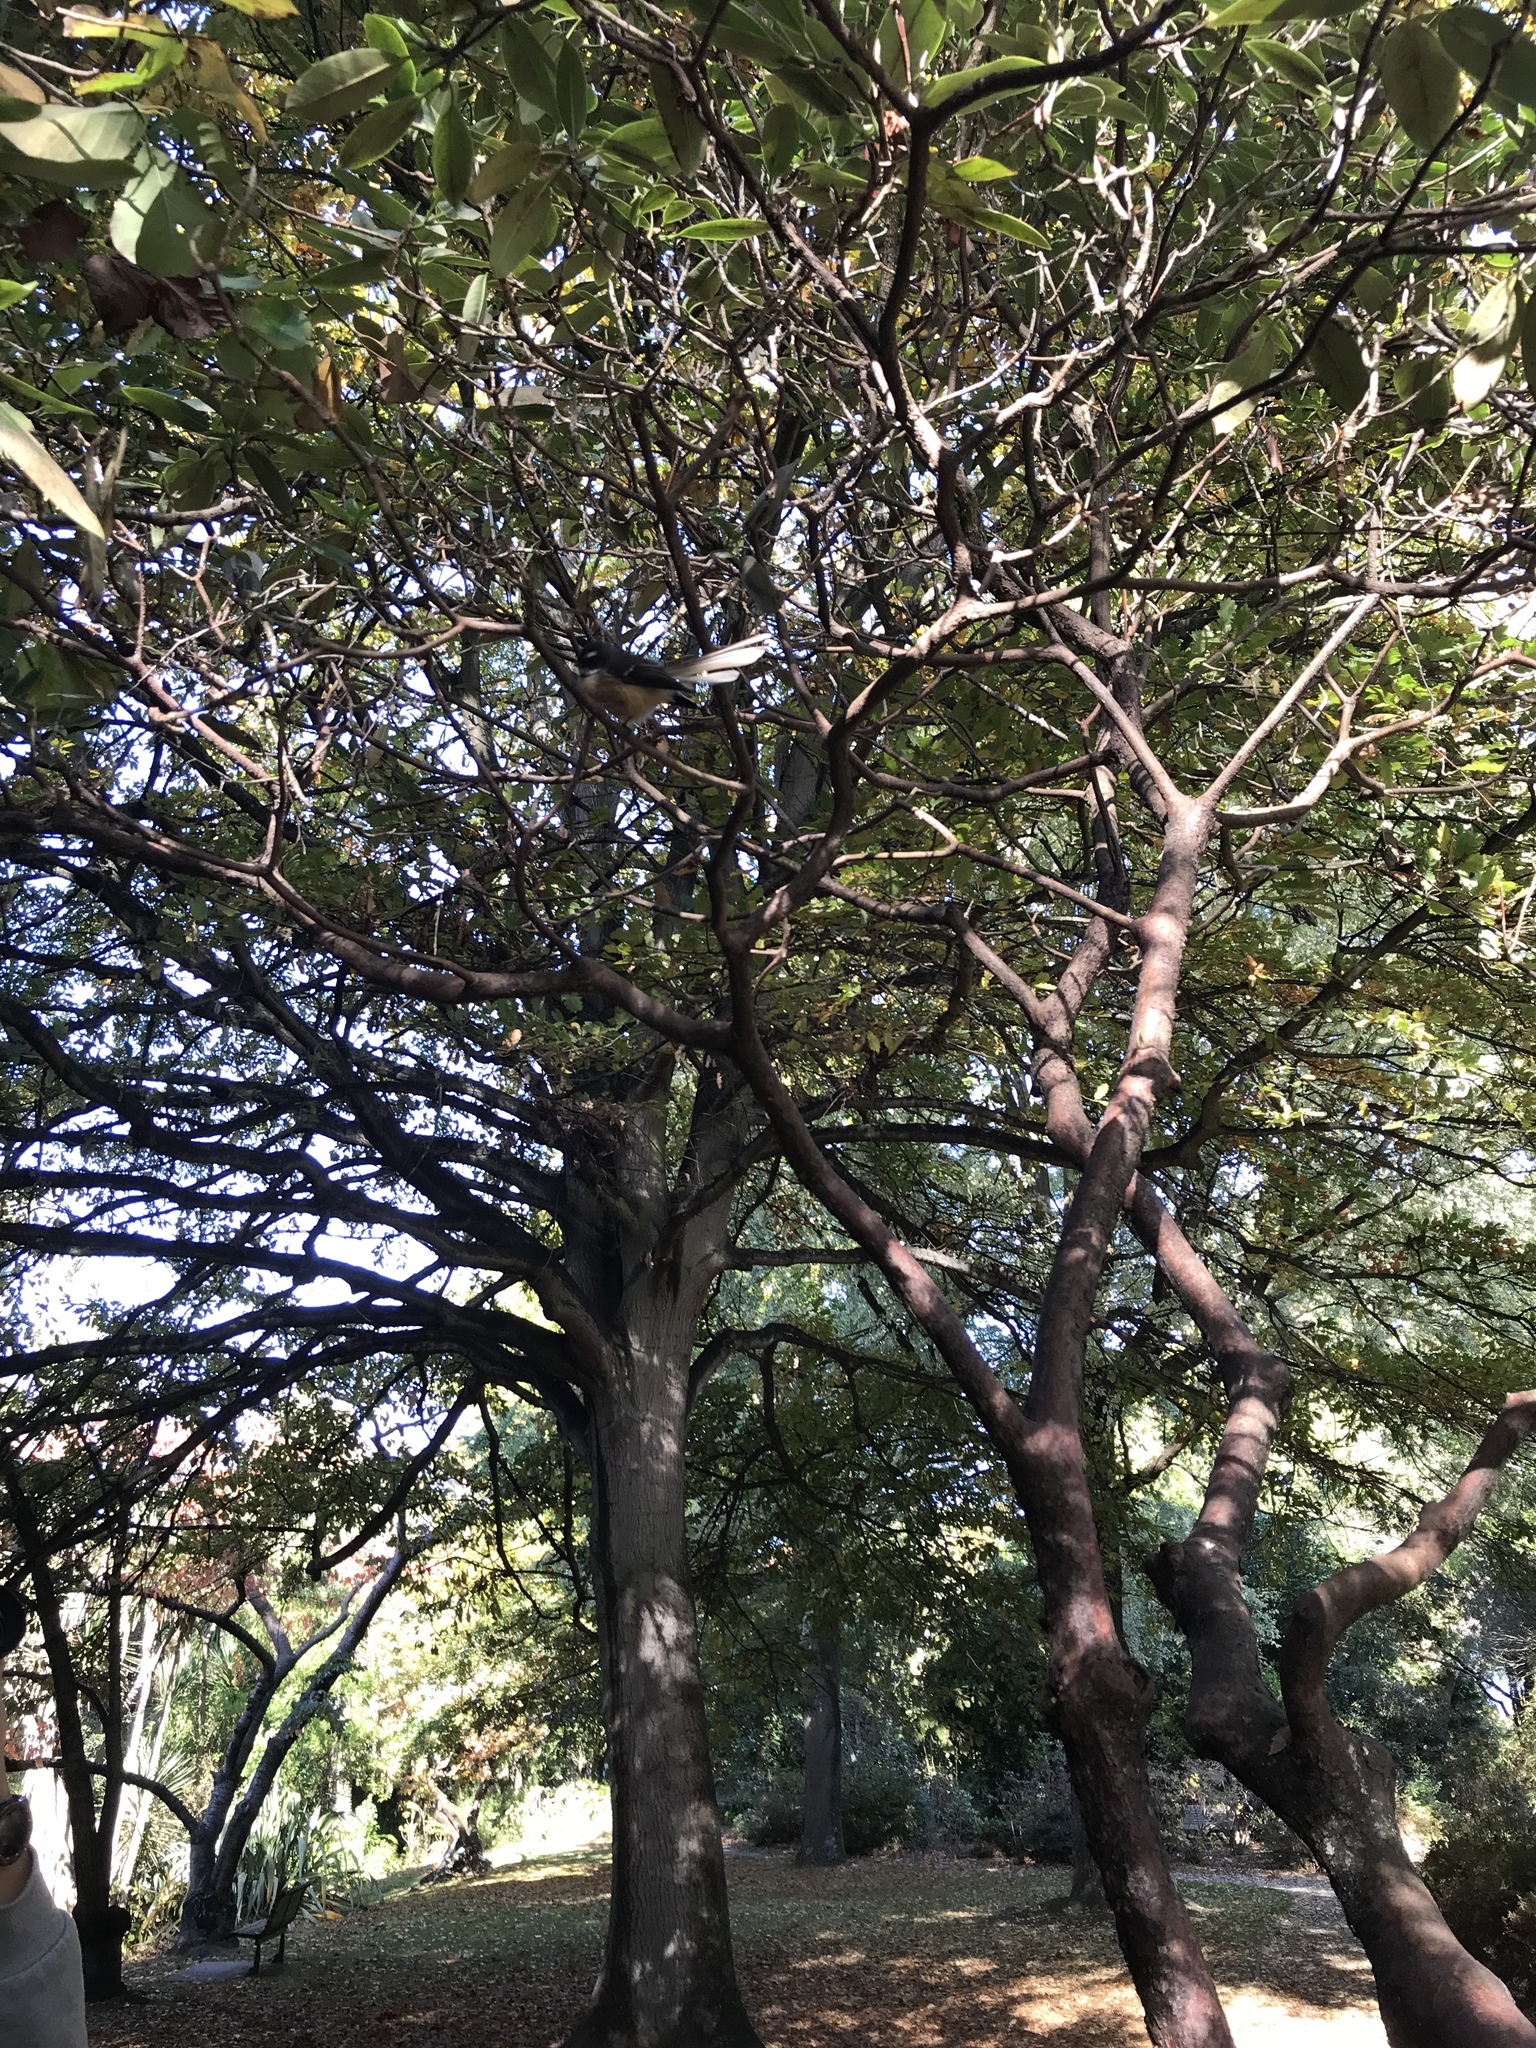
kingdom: Animalia
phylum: Chordata
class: Aves
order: Passeriformes
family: Rhipiduridae
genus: Rhipidura
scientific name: Rhipidura fuliginosa
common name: New zealand fantail
